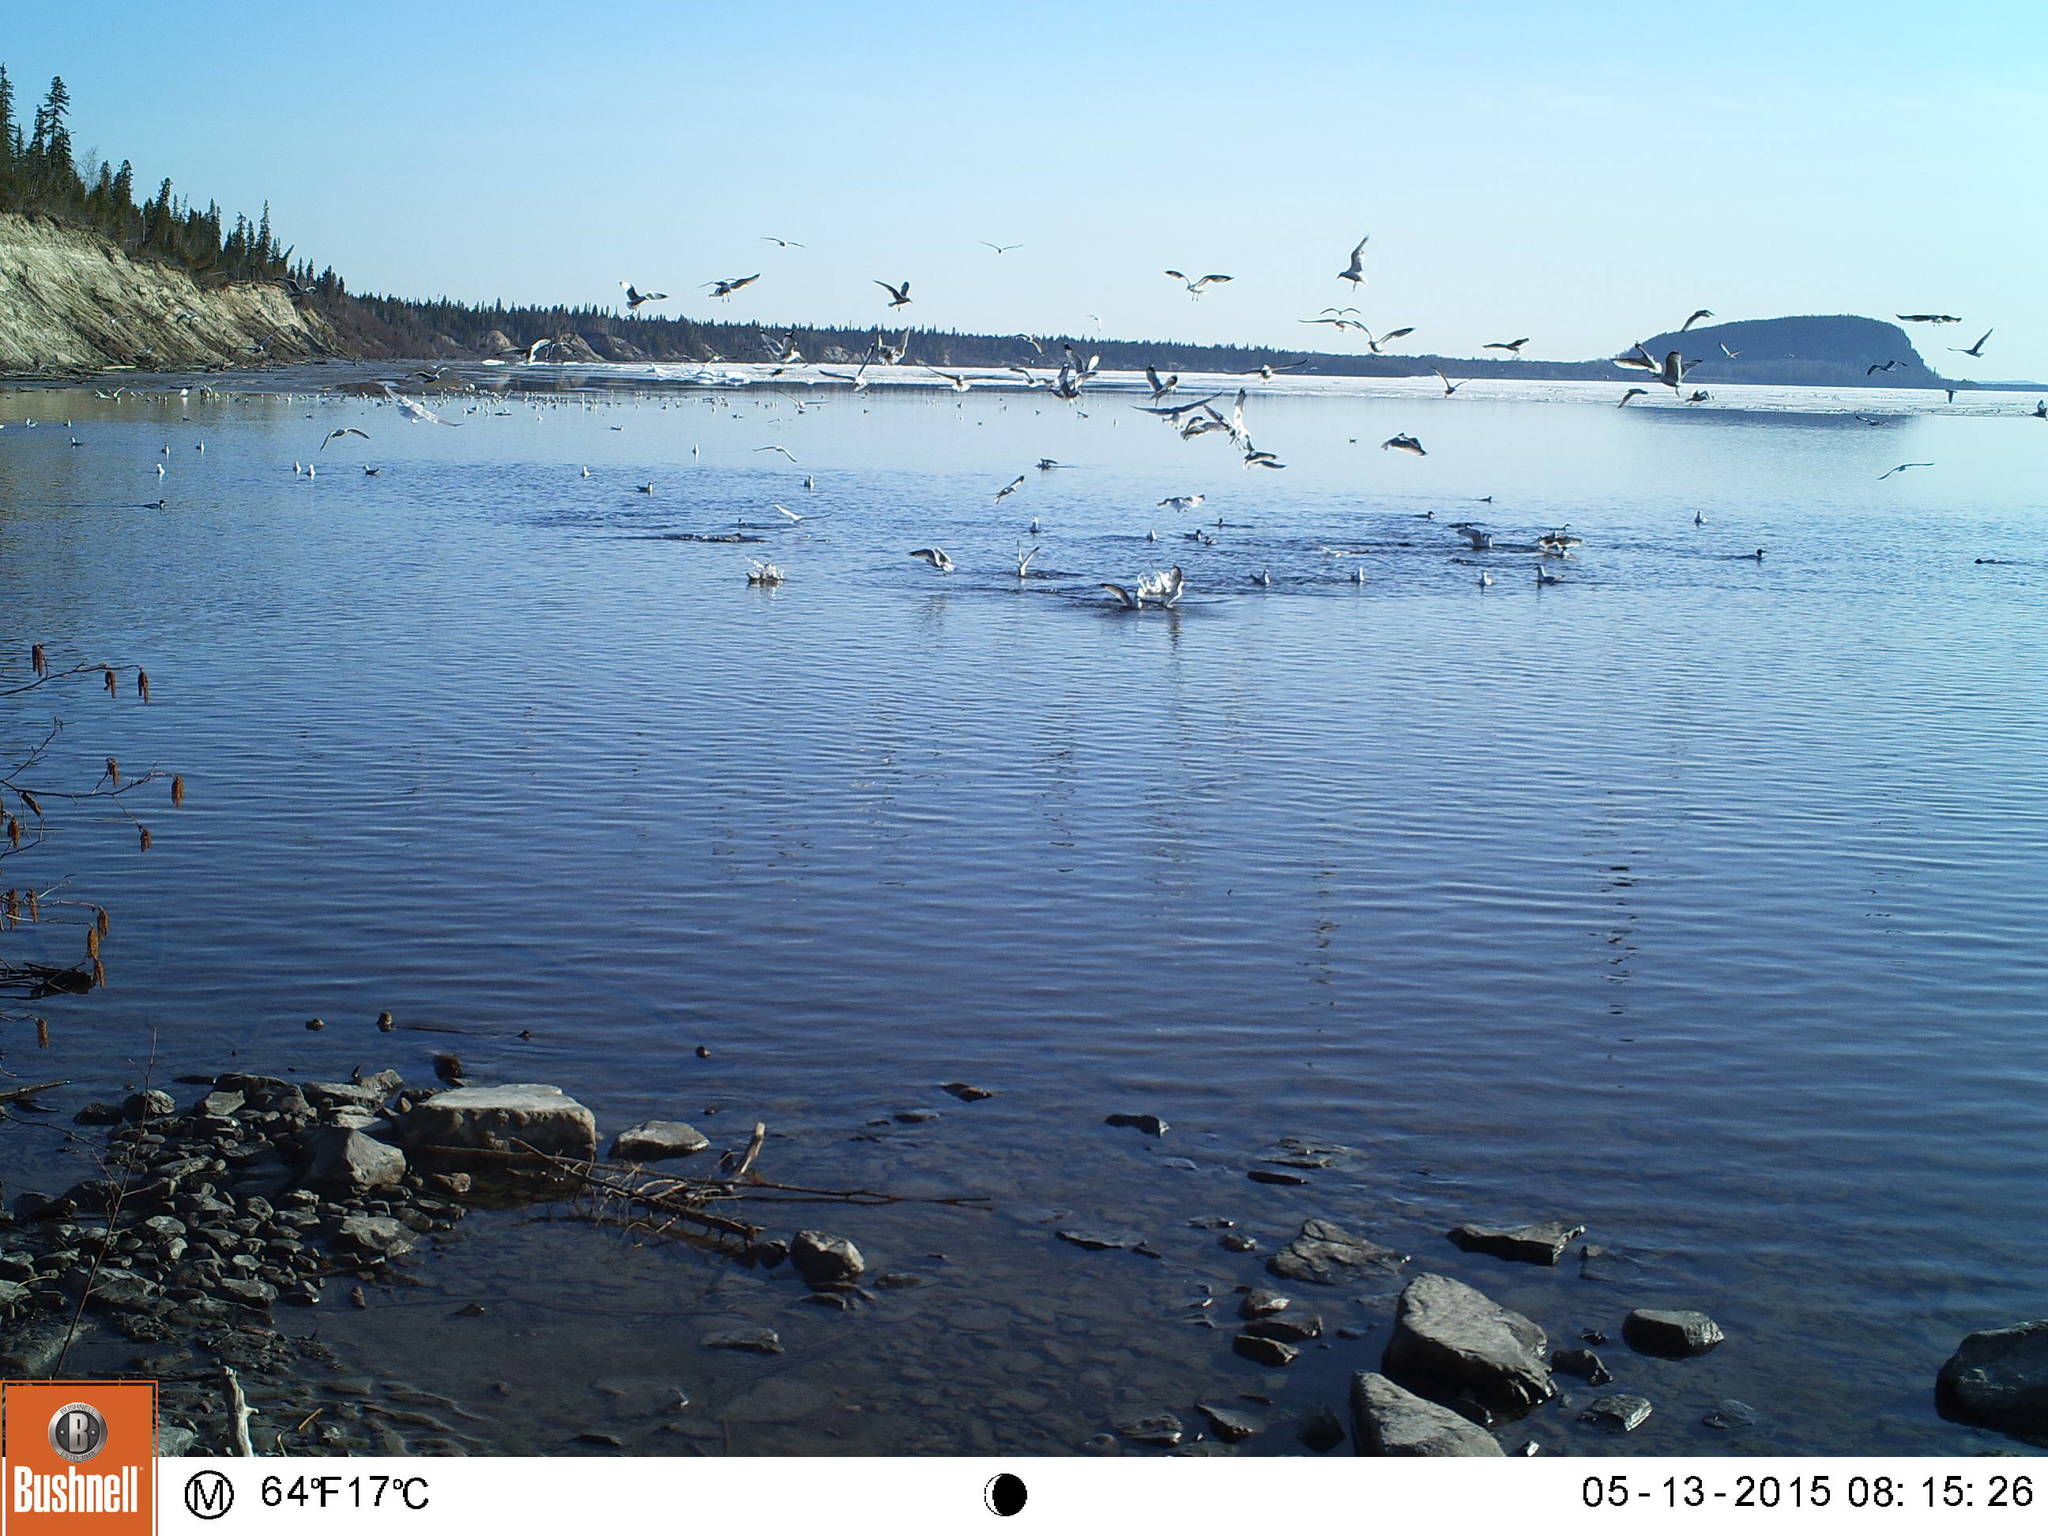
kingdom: Animalia
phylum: Chordata
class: Aves
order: Charadriiformes
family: Laridae
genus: Larus
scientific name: Larus delawarensis
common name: Ring-billed gull
